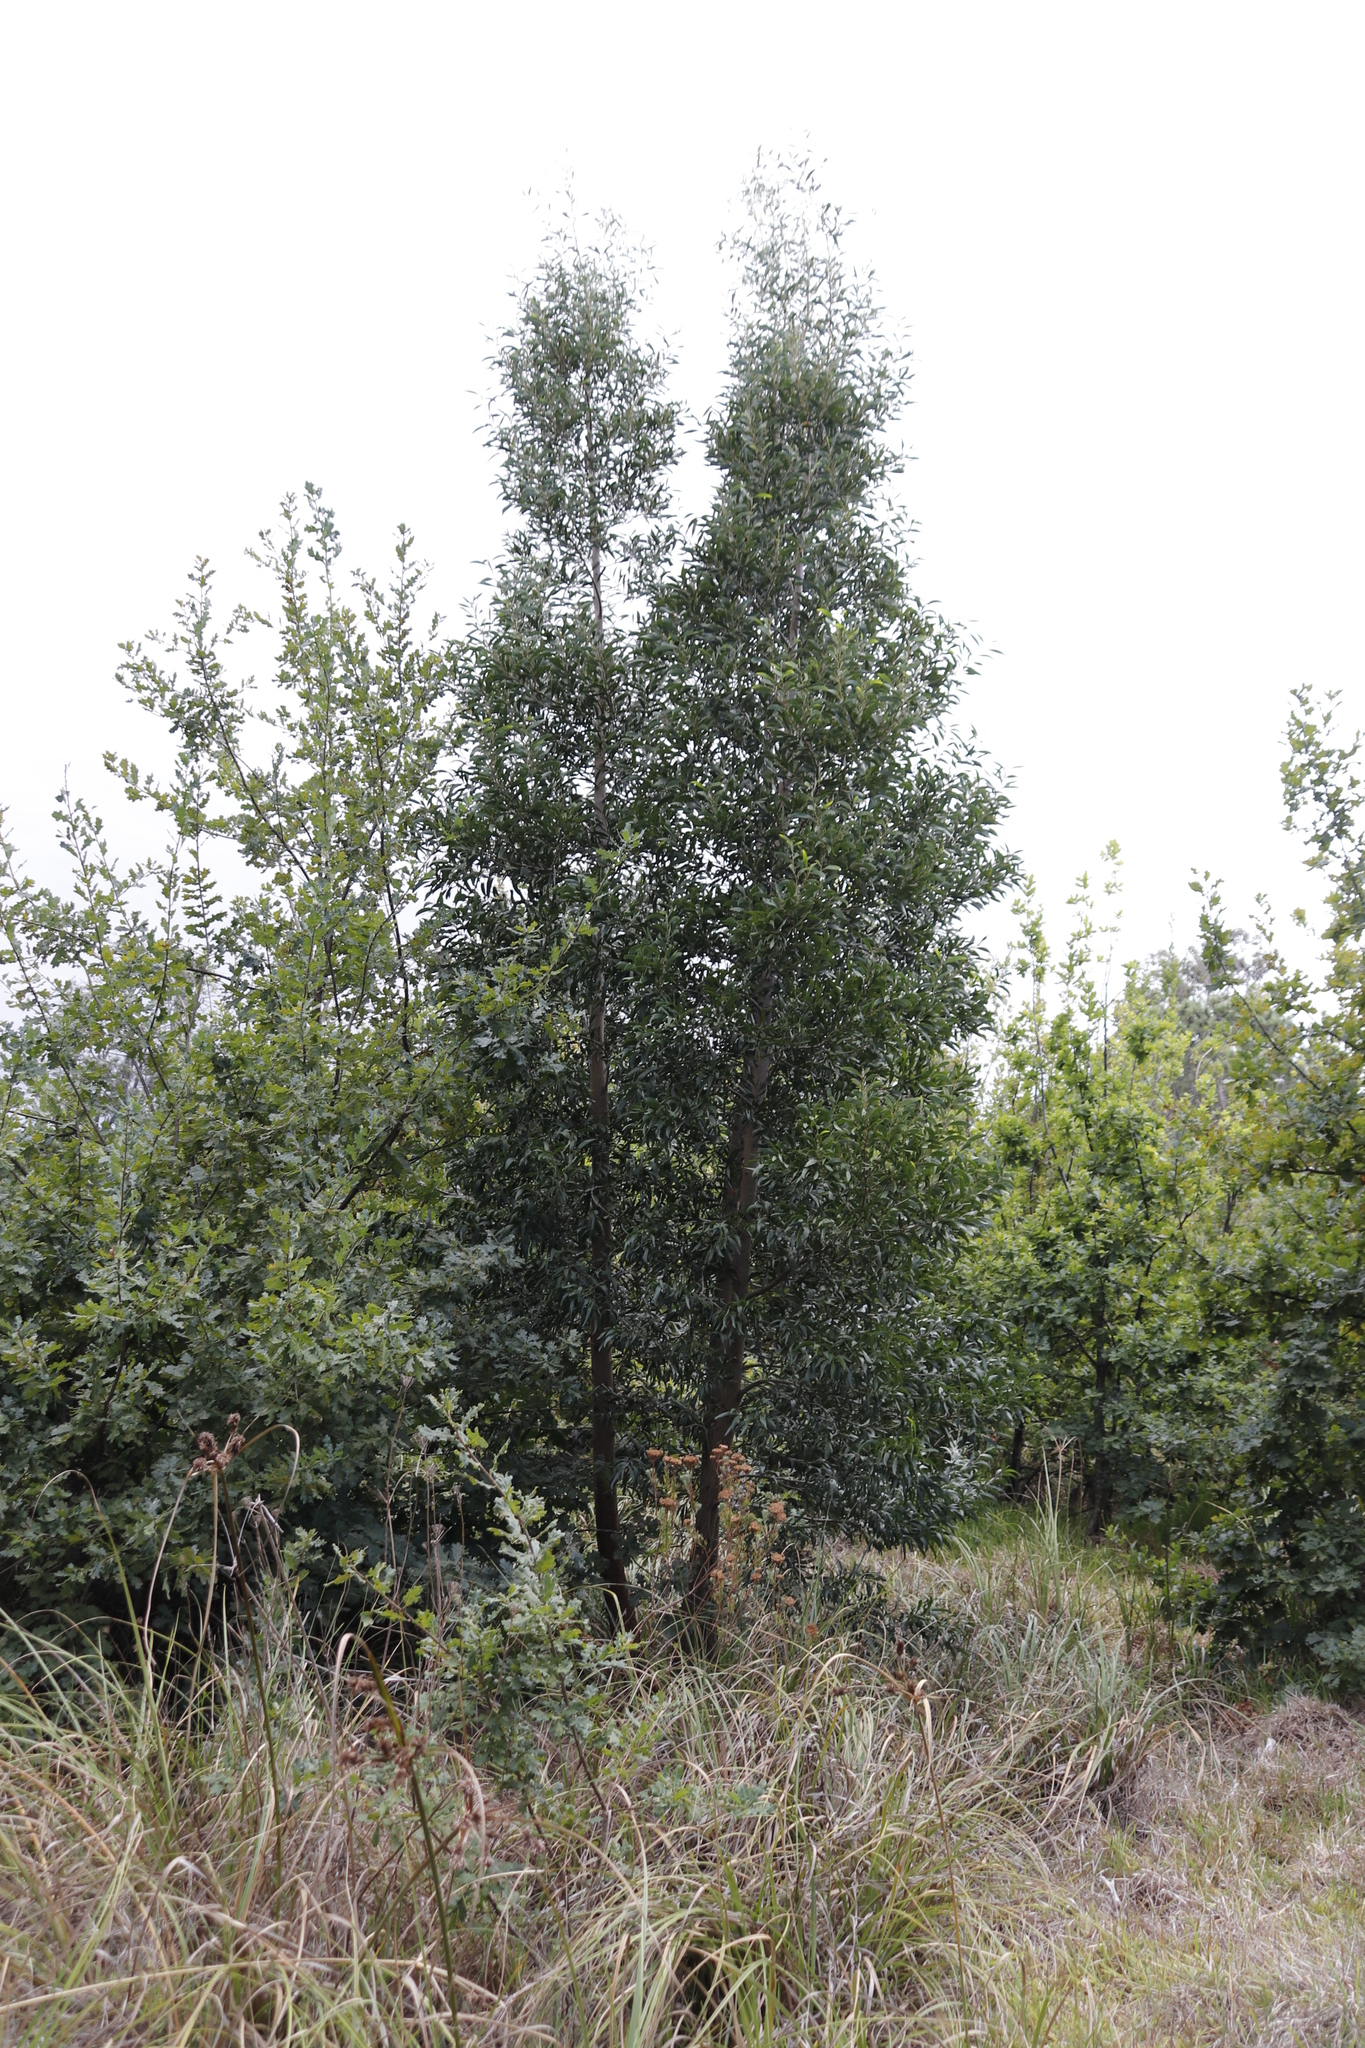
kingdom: Plantae
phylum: Tracheophyta
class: Magnoliopsida
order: Fabales
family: Fabaceae
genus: Acacia
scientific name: Acacia melanoxylon
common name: Blackwood
